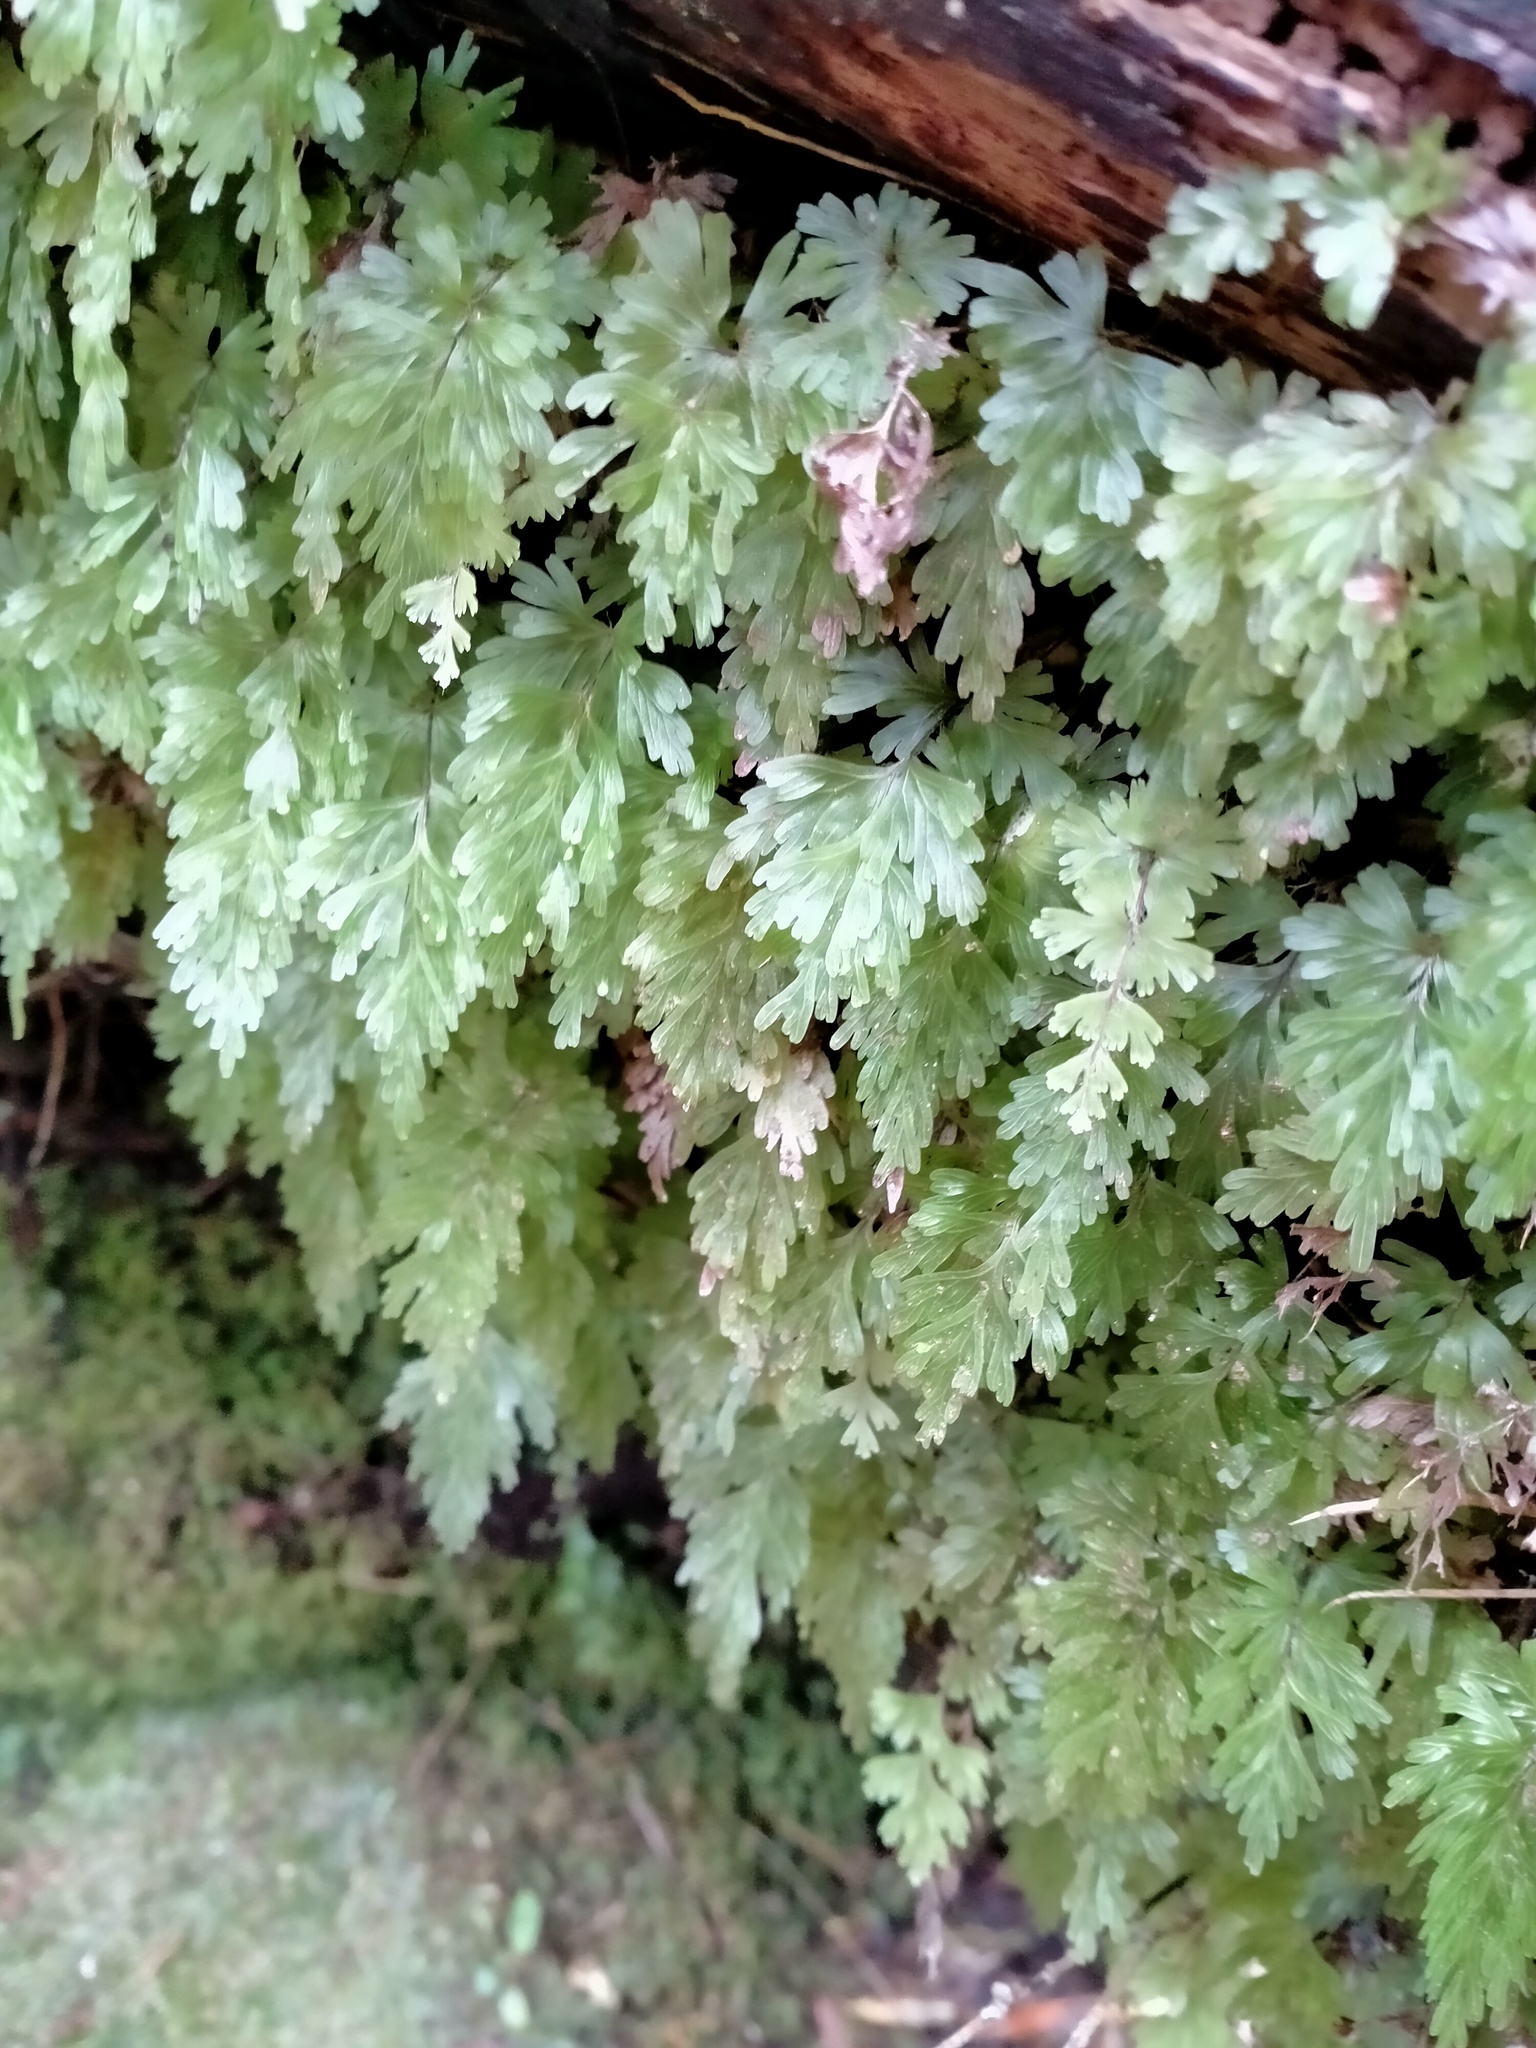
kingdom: Plantae
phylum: Tracheophyta
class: Polypodiopsida
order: Hymenophyllales
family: Hymenophyllaceae
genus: Hymenophyllum
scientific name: Hymenophyllum flabellatum
